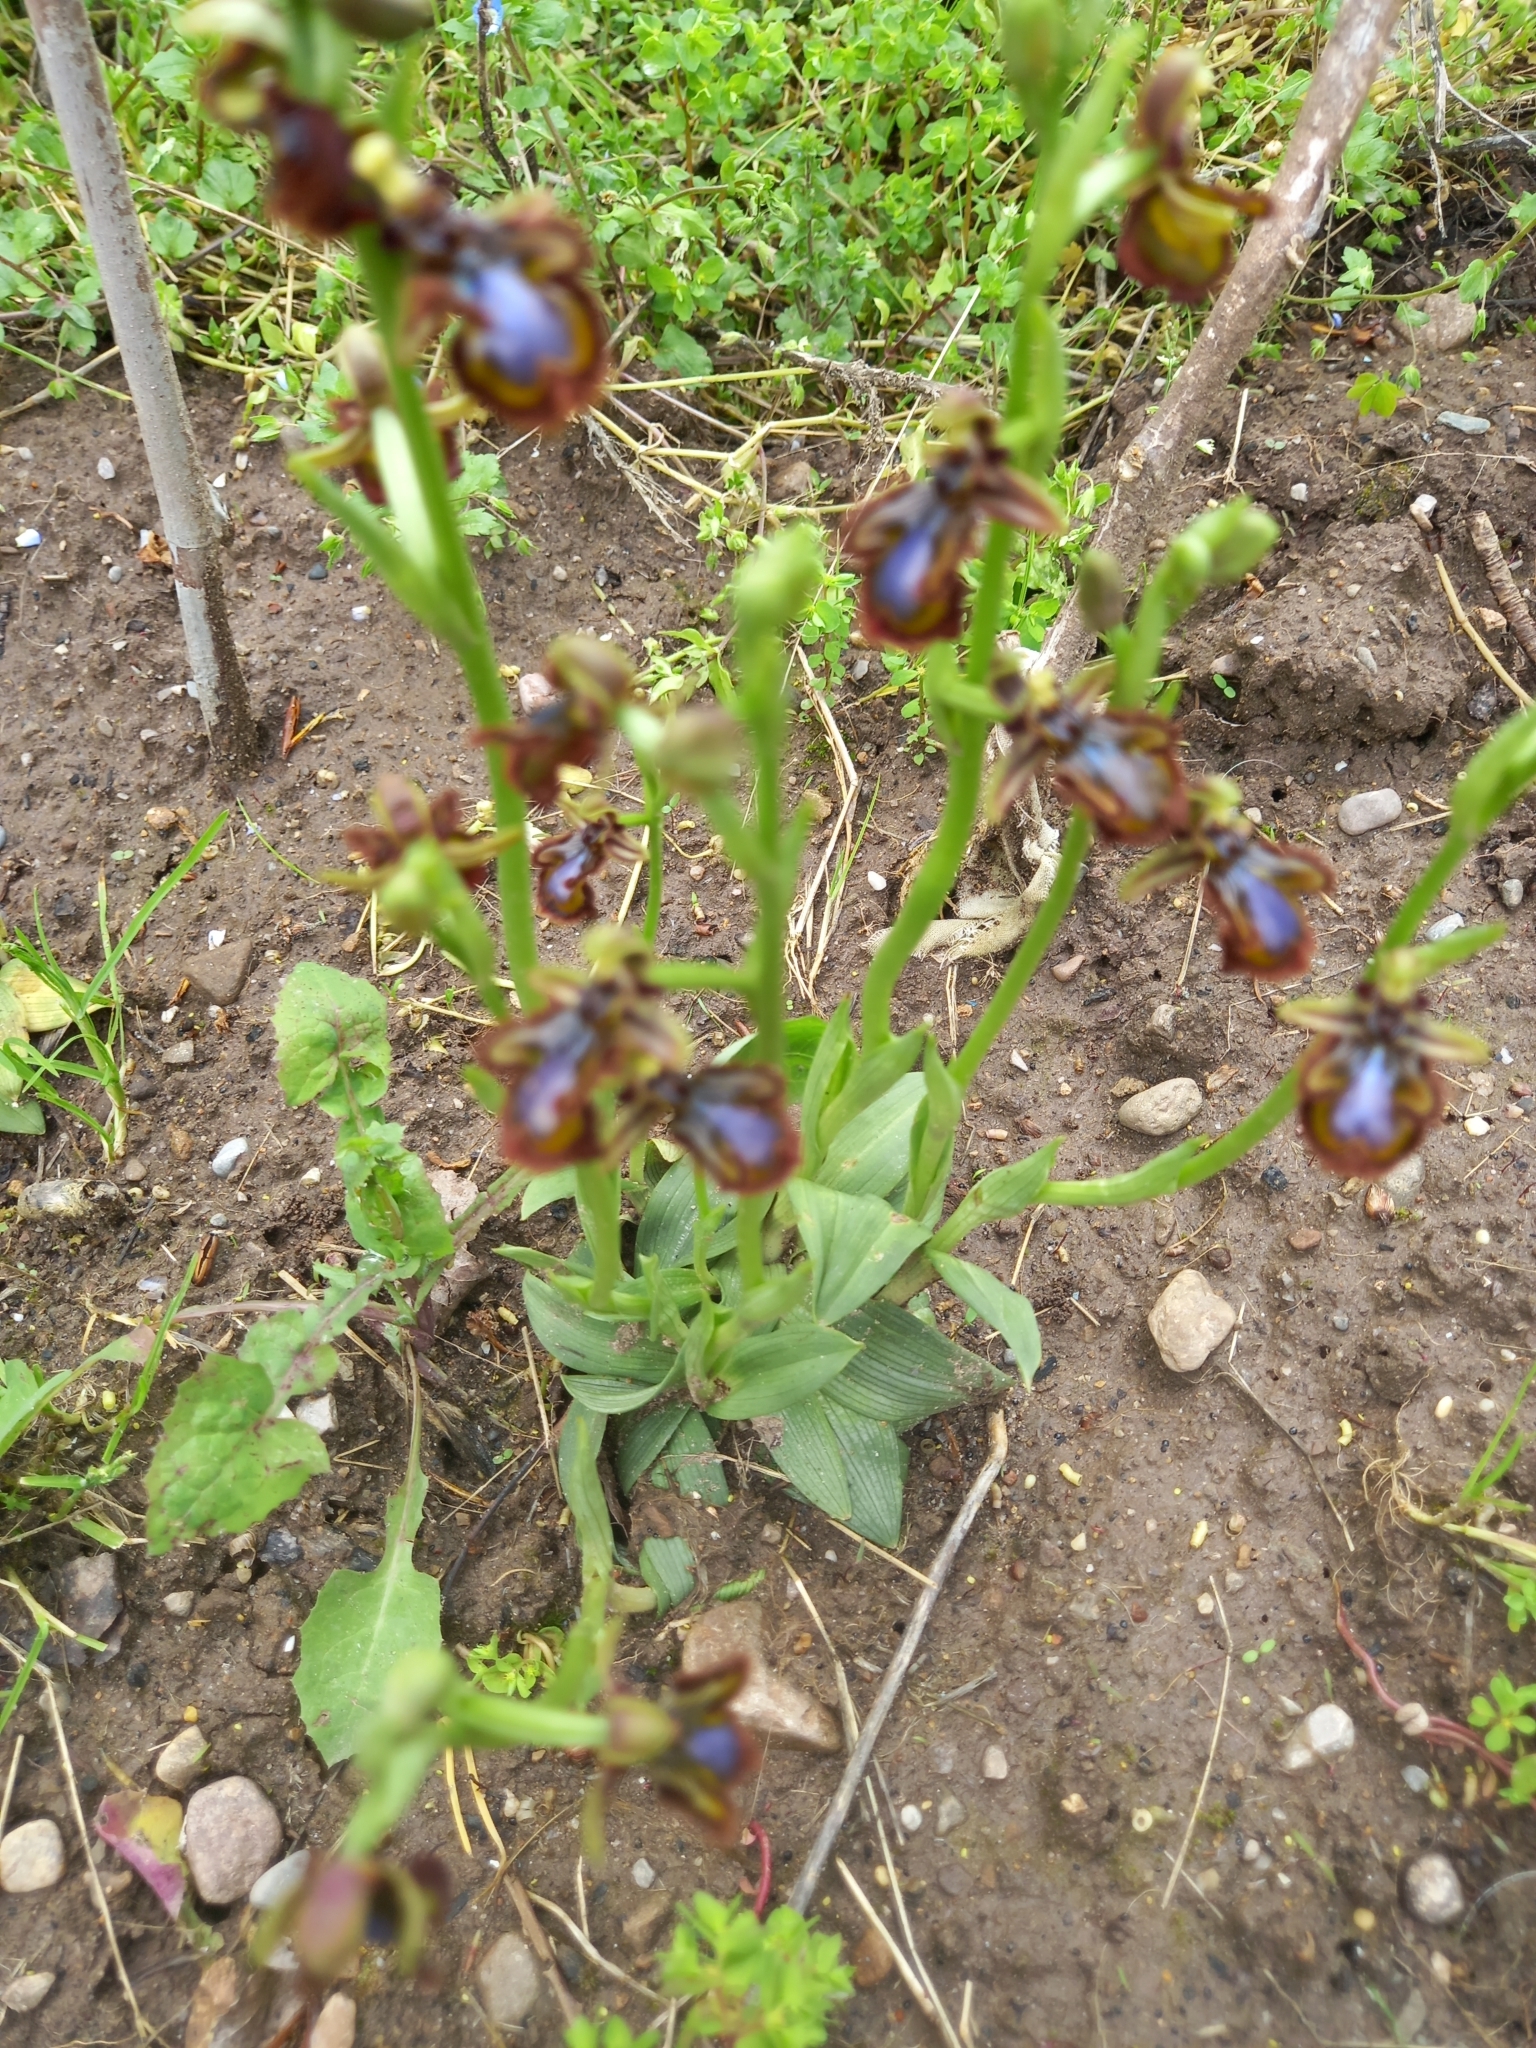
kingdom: Plantae
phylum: Tracheophyta
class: Liliopsida
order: Asparagales
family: Orchidaceae
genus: Ophrys
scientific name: Ophrys speculum
